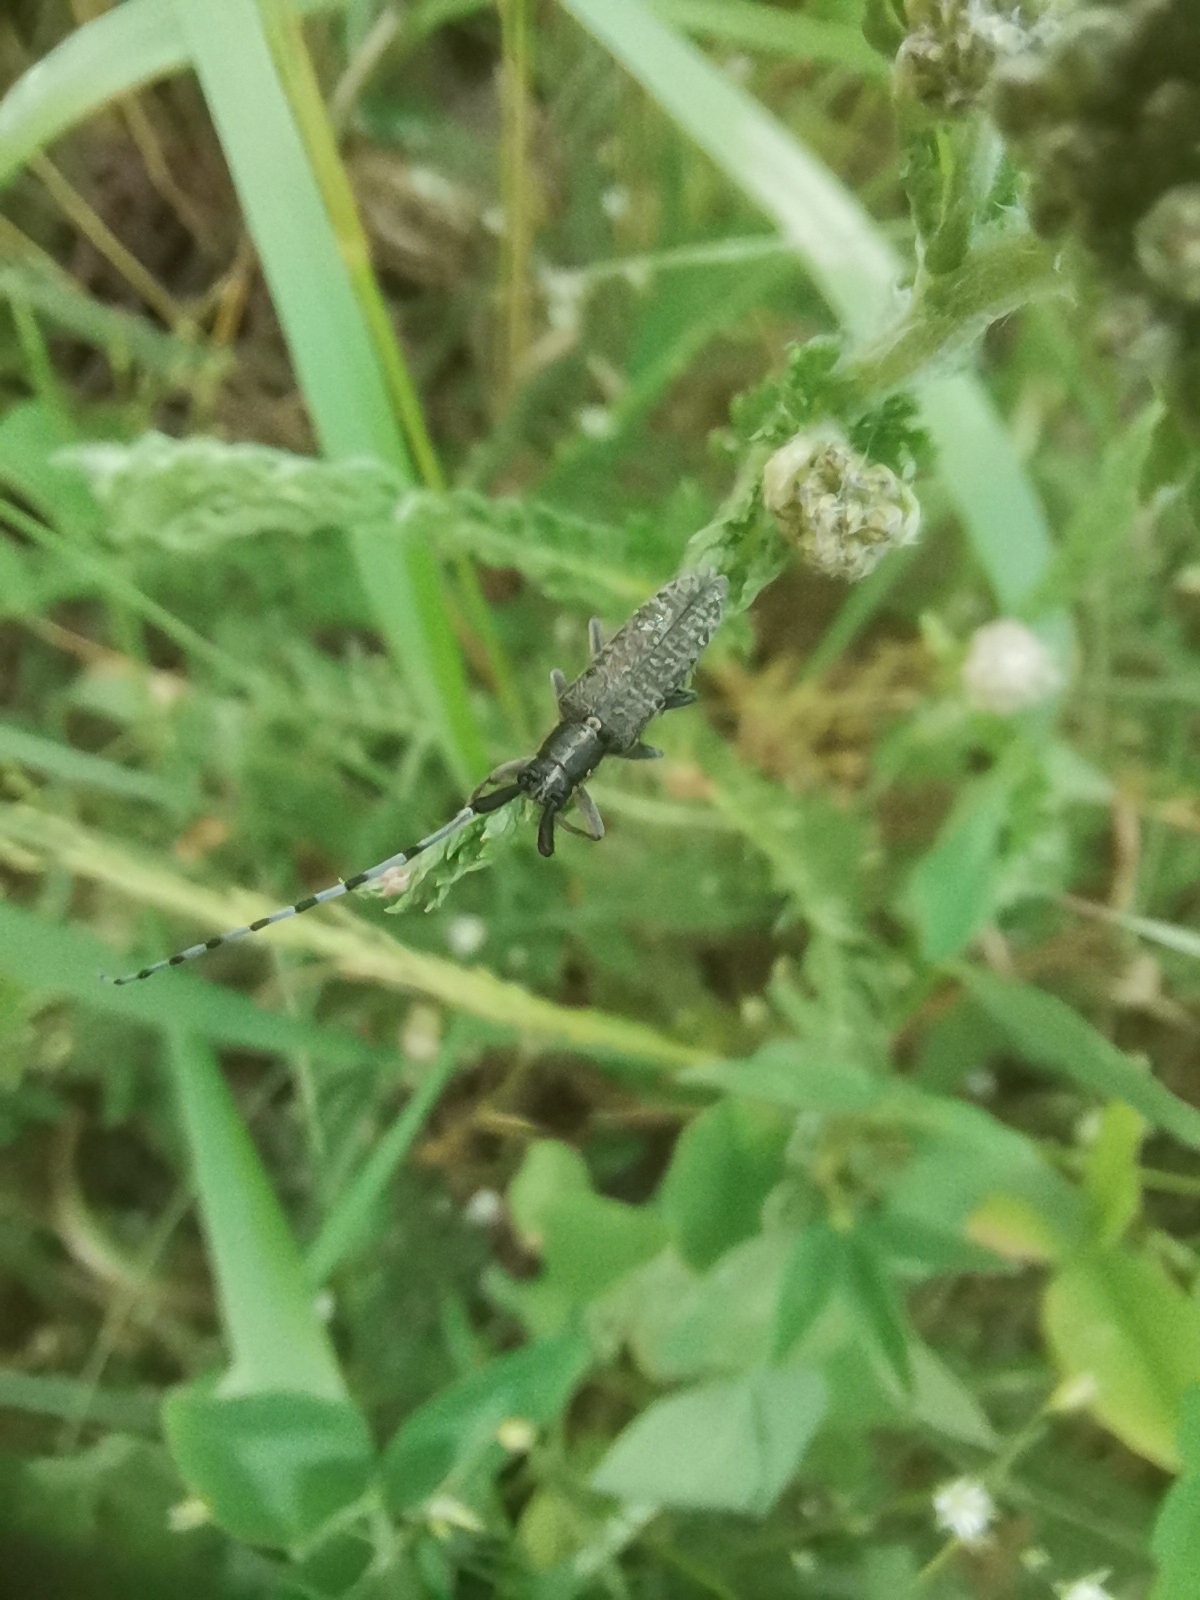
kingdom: Animalia
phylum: Arthropoda
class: Insecta
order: Coleoptera
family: Cerambycidae
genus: Agapanthia
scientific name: Agapanthia villosoviridescens
